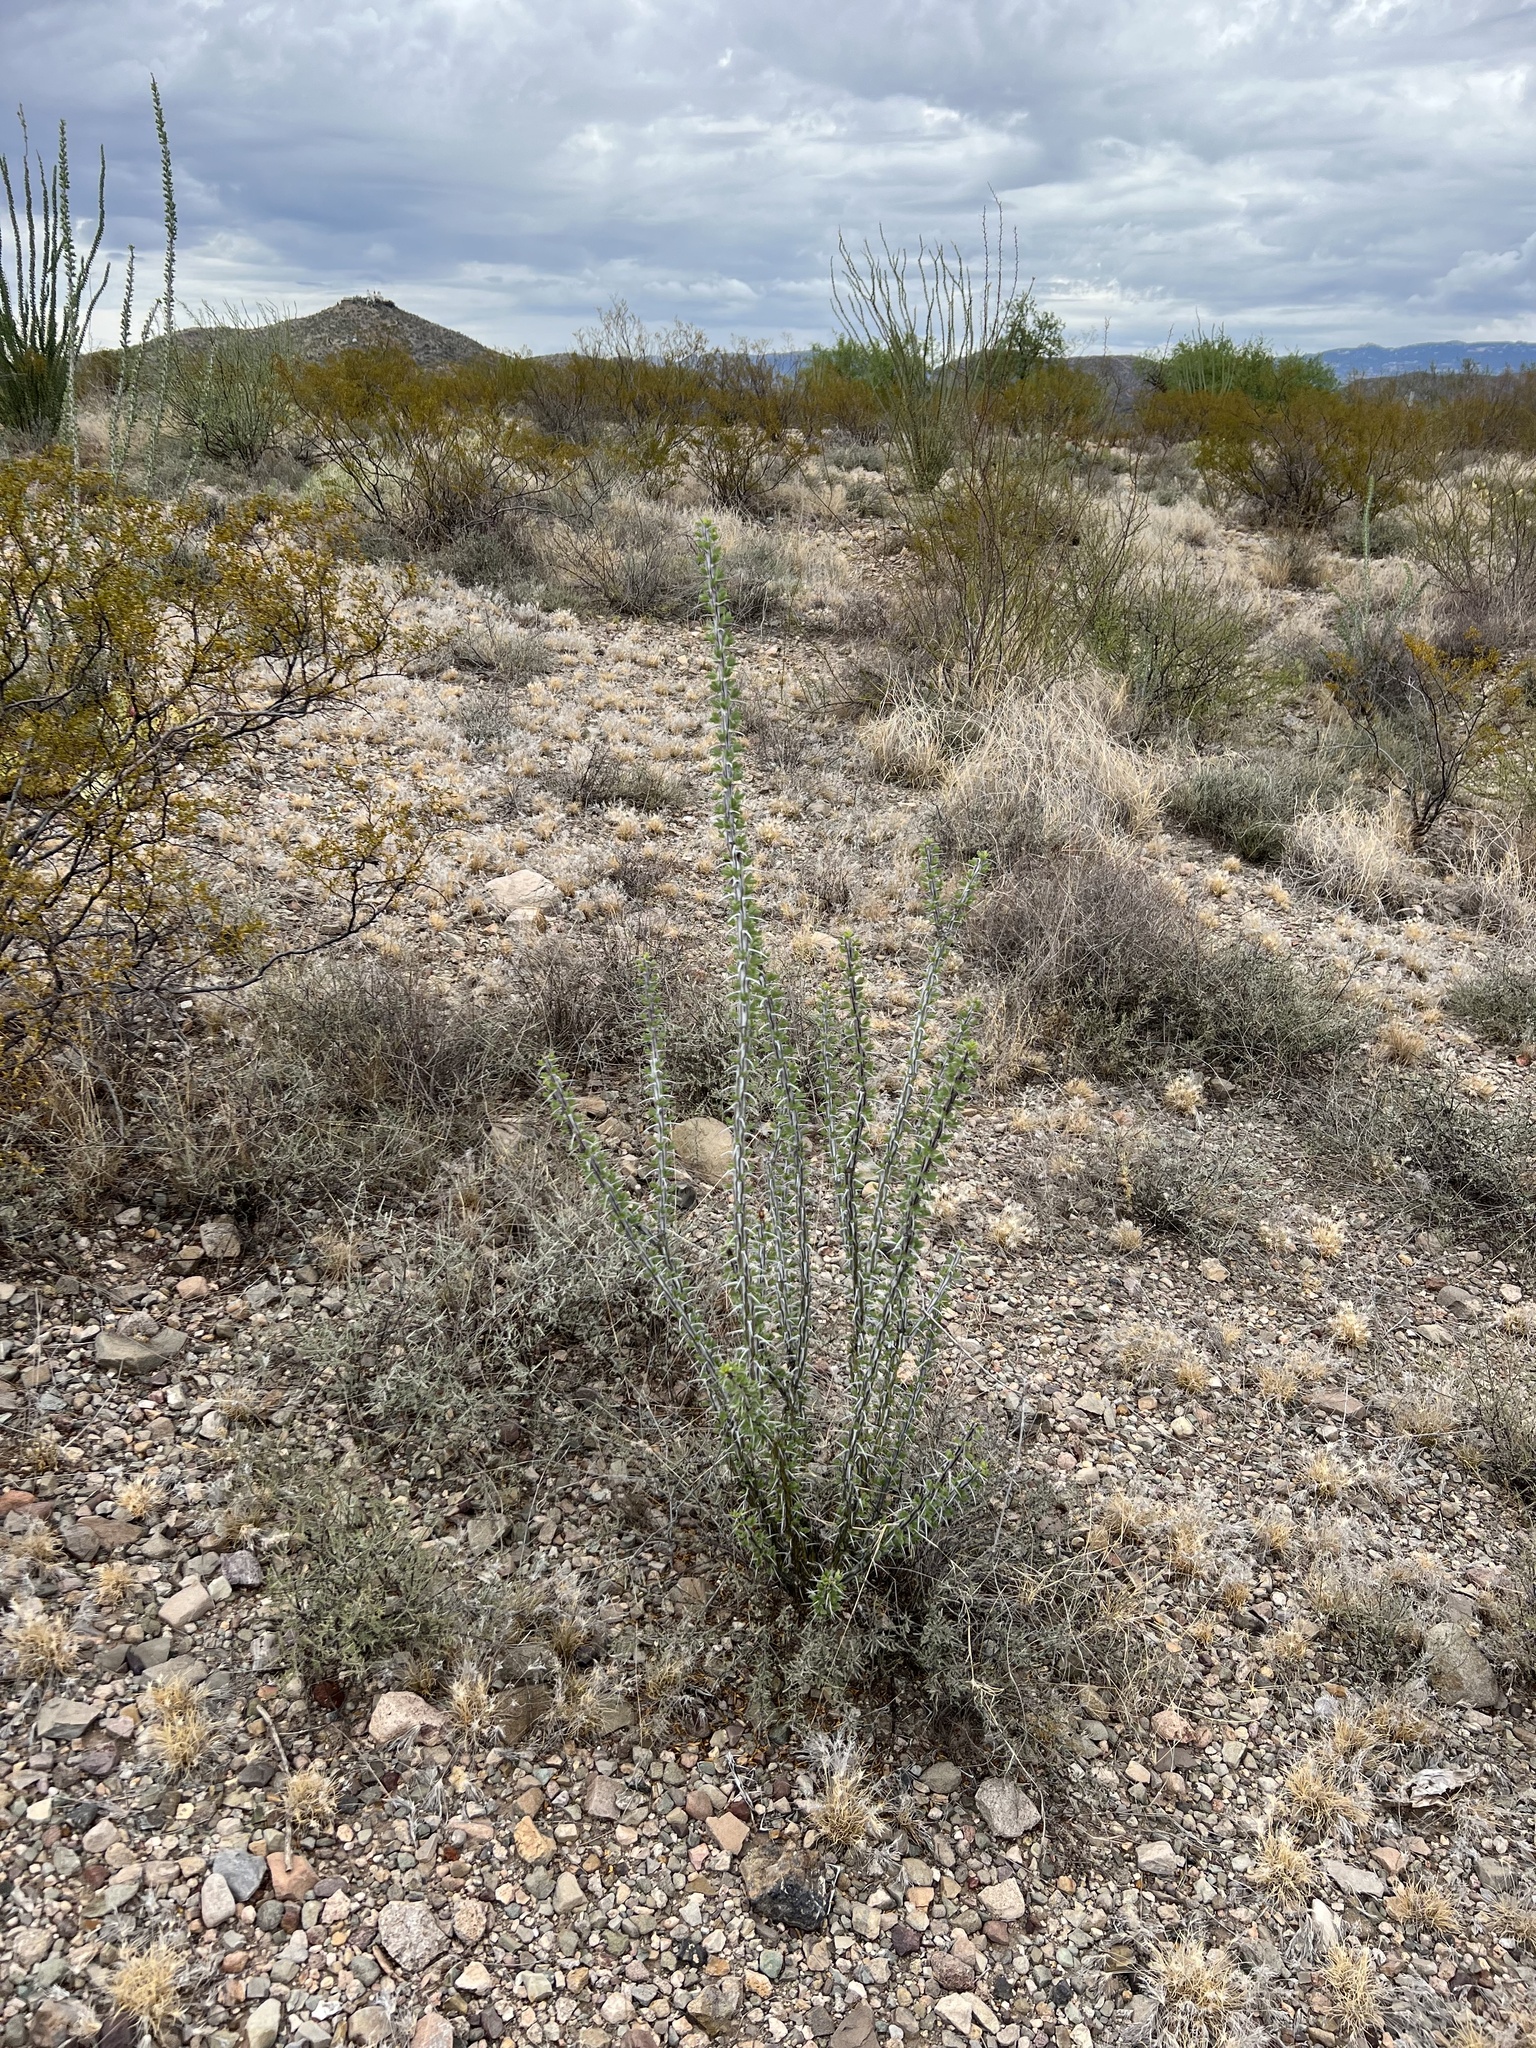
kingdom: Plantae
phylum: Tracheophyta
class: Magnoliopsida
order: Ericales
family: Fouquieriaceae
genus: Fouquieria
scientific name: Fouquieria splendens
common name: Vine-cactus
